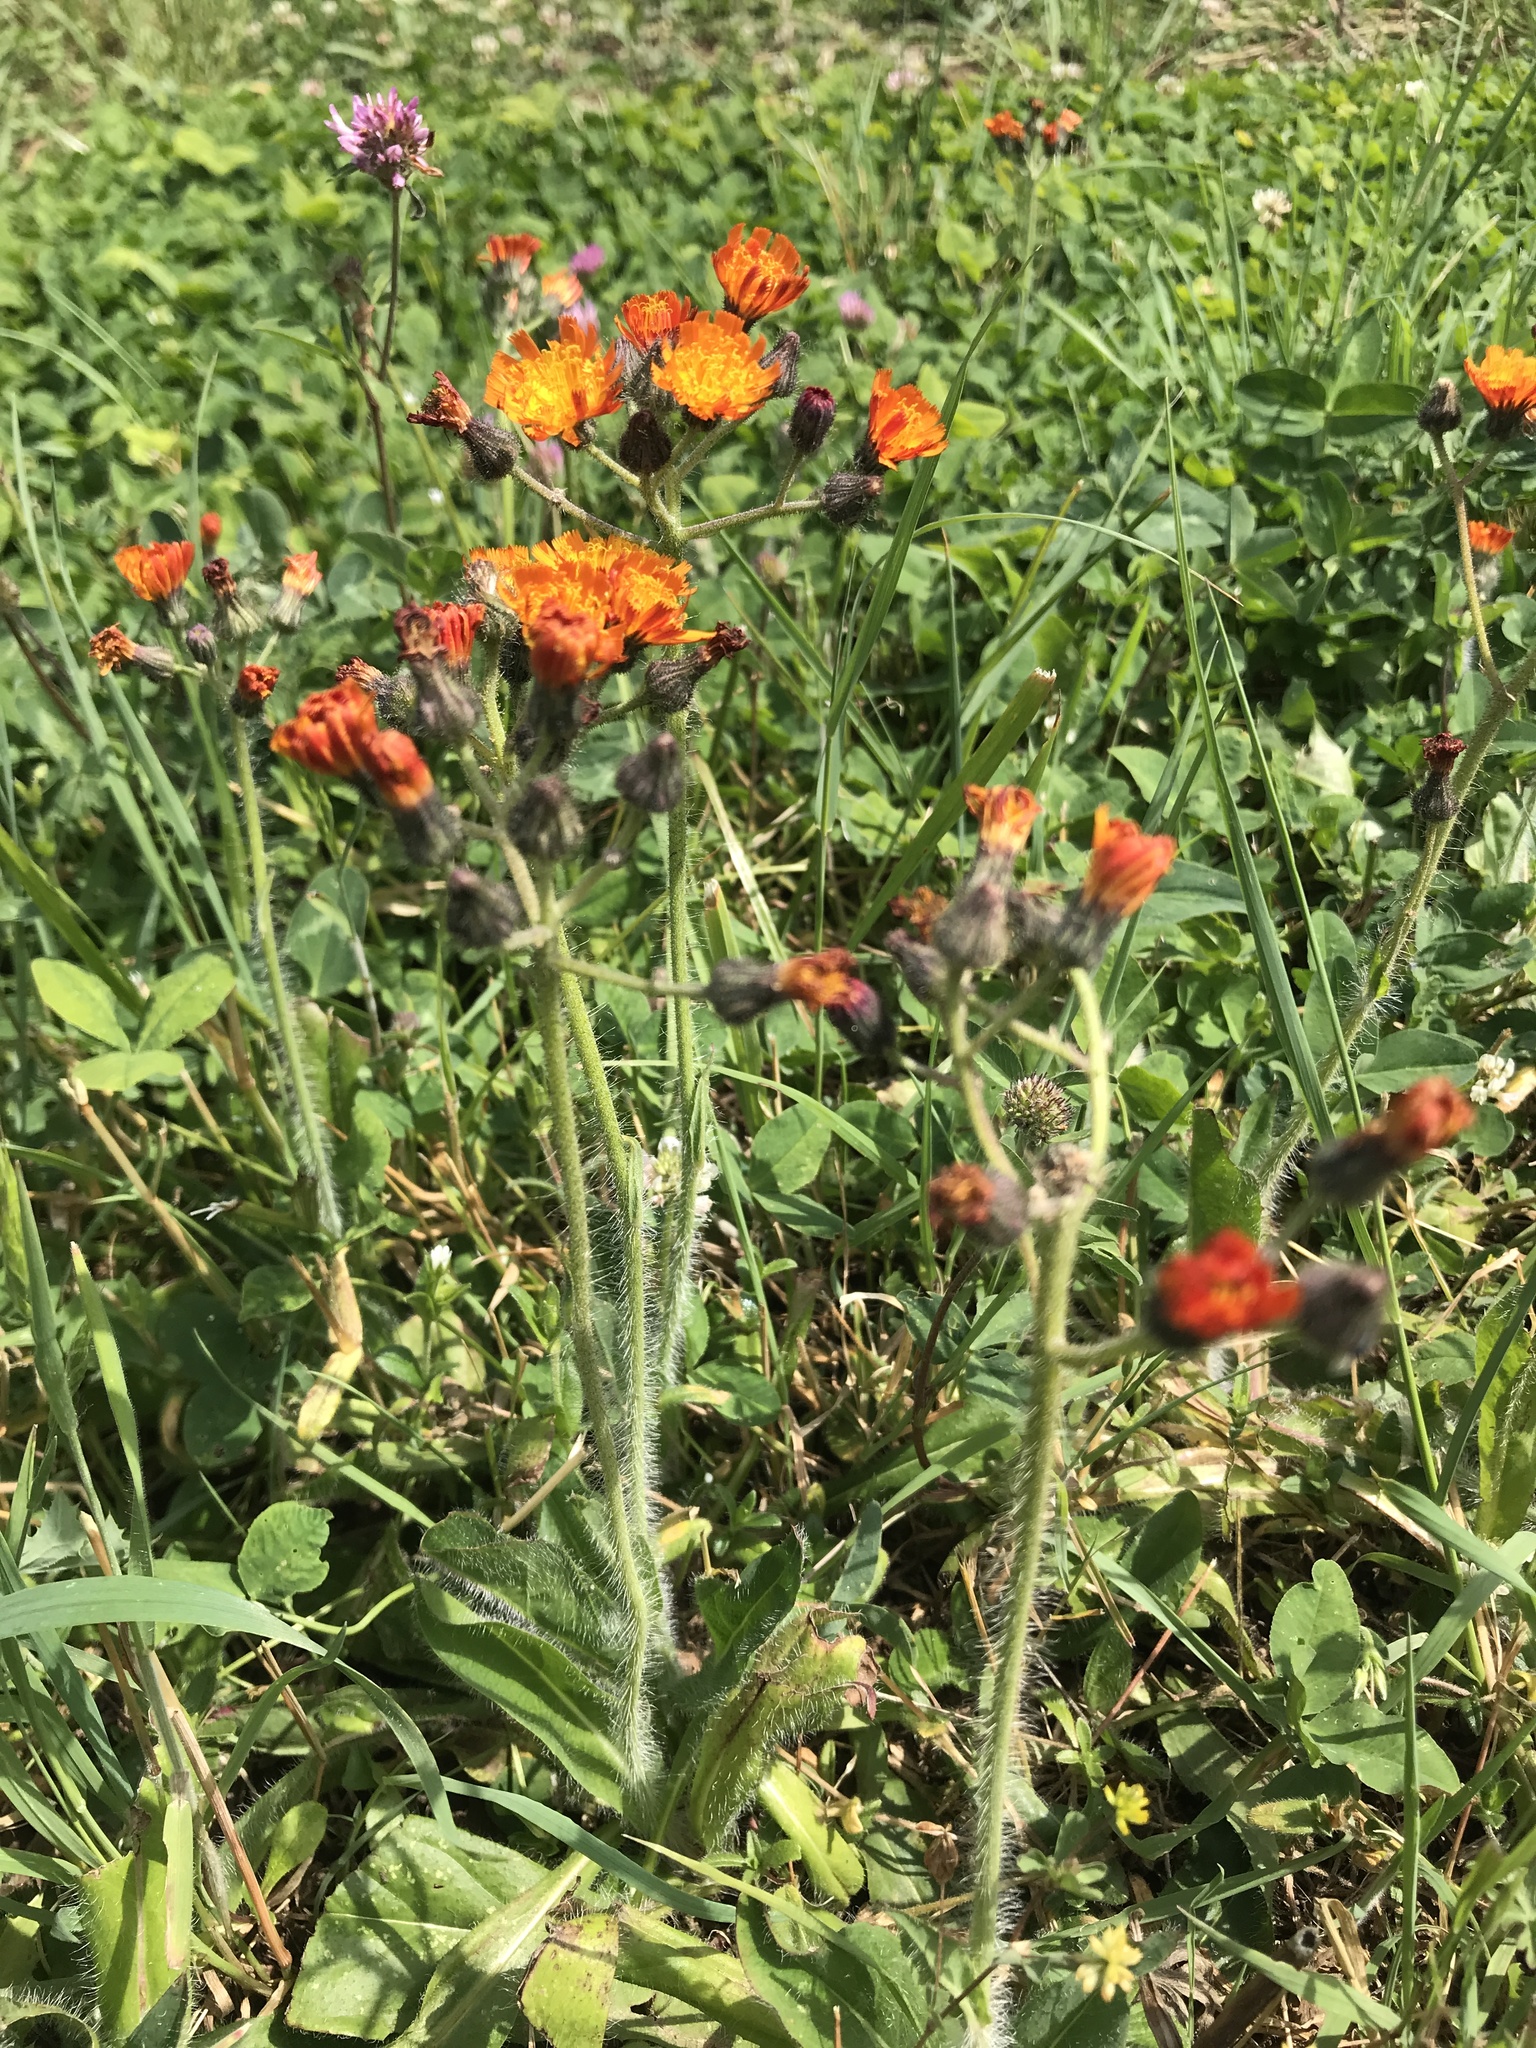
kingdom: Plantae
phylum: Tracheophyta
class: Magnoliopsida
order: Asterales
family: Asteraceae
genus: Pilosella
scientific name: Pilosella aurantiaca
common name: Fox-and-cubs
